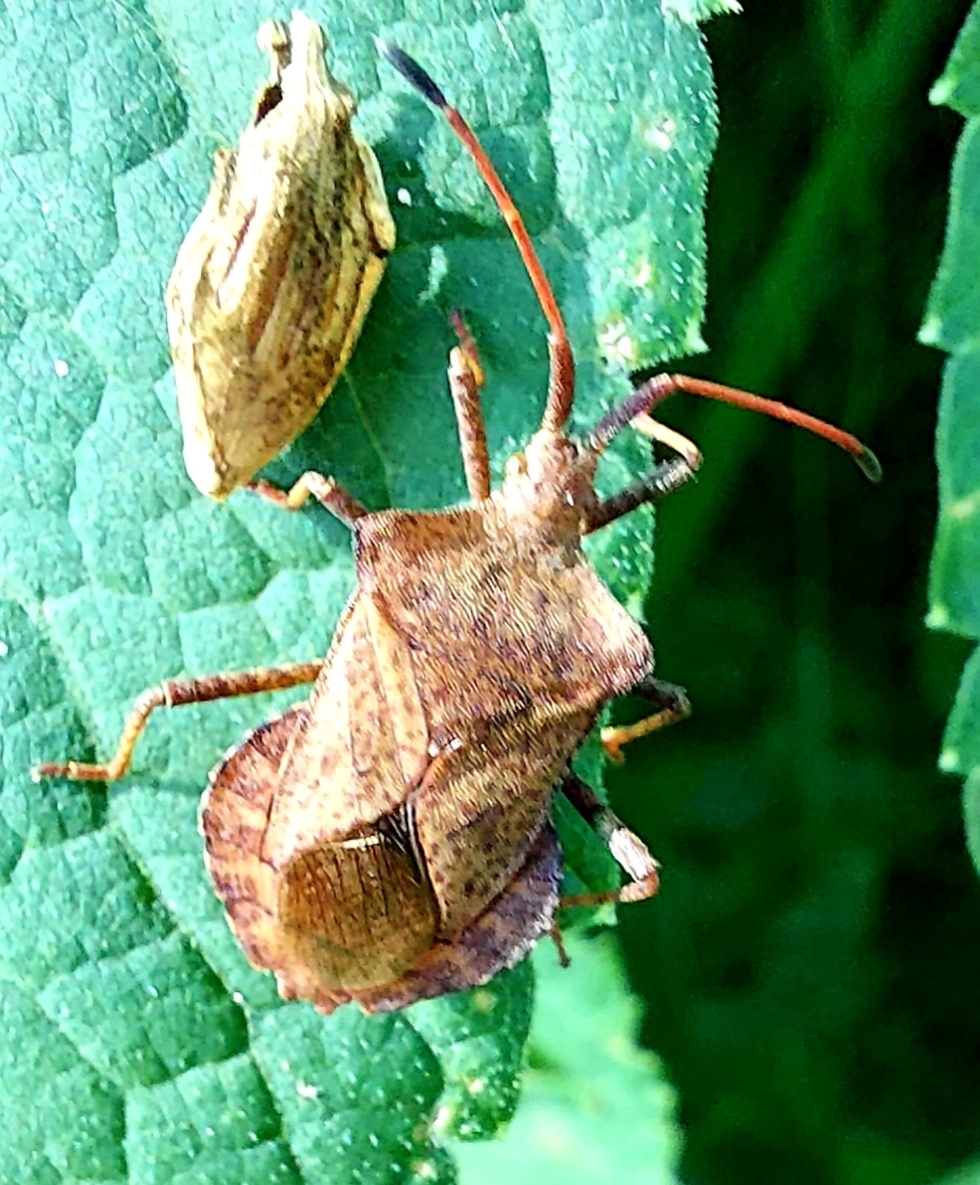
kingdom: Animalia
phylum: Arthropoda
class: Insecta
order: Hemiptera
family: Coreidae
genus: Coreus
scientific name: Coreus marginatus
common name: Dock bug
